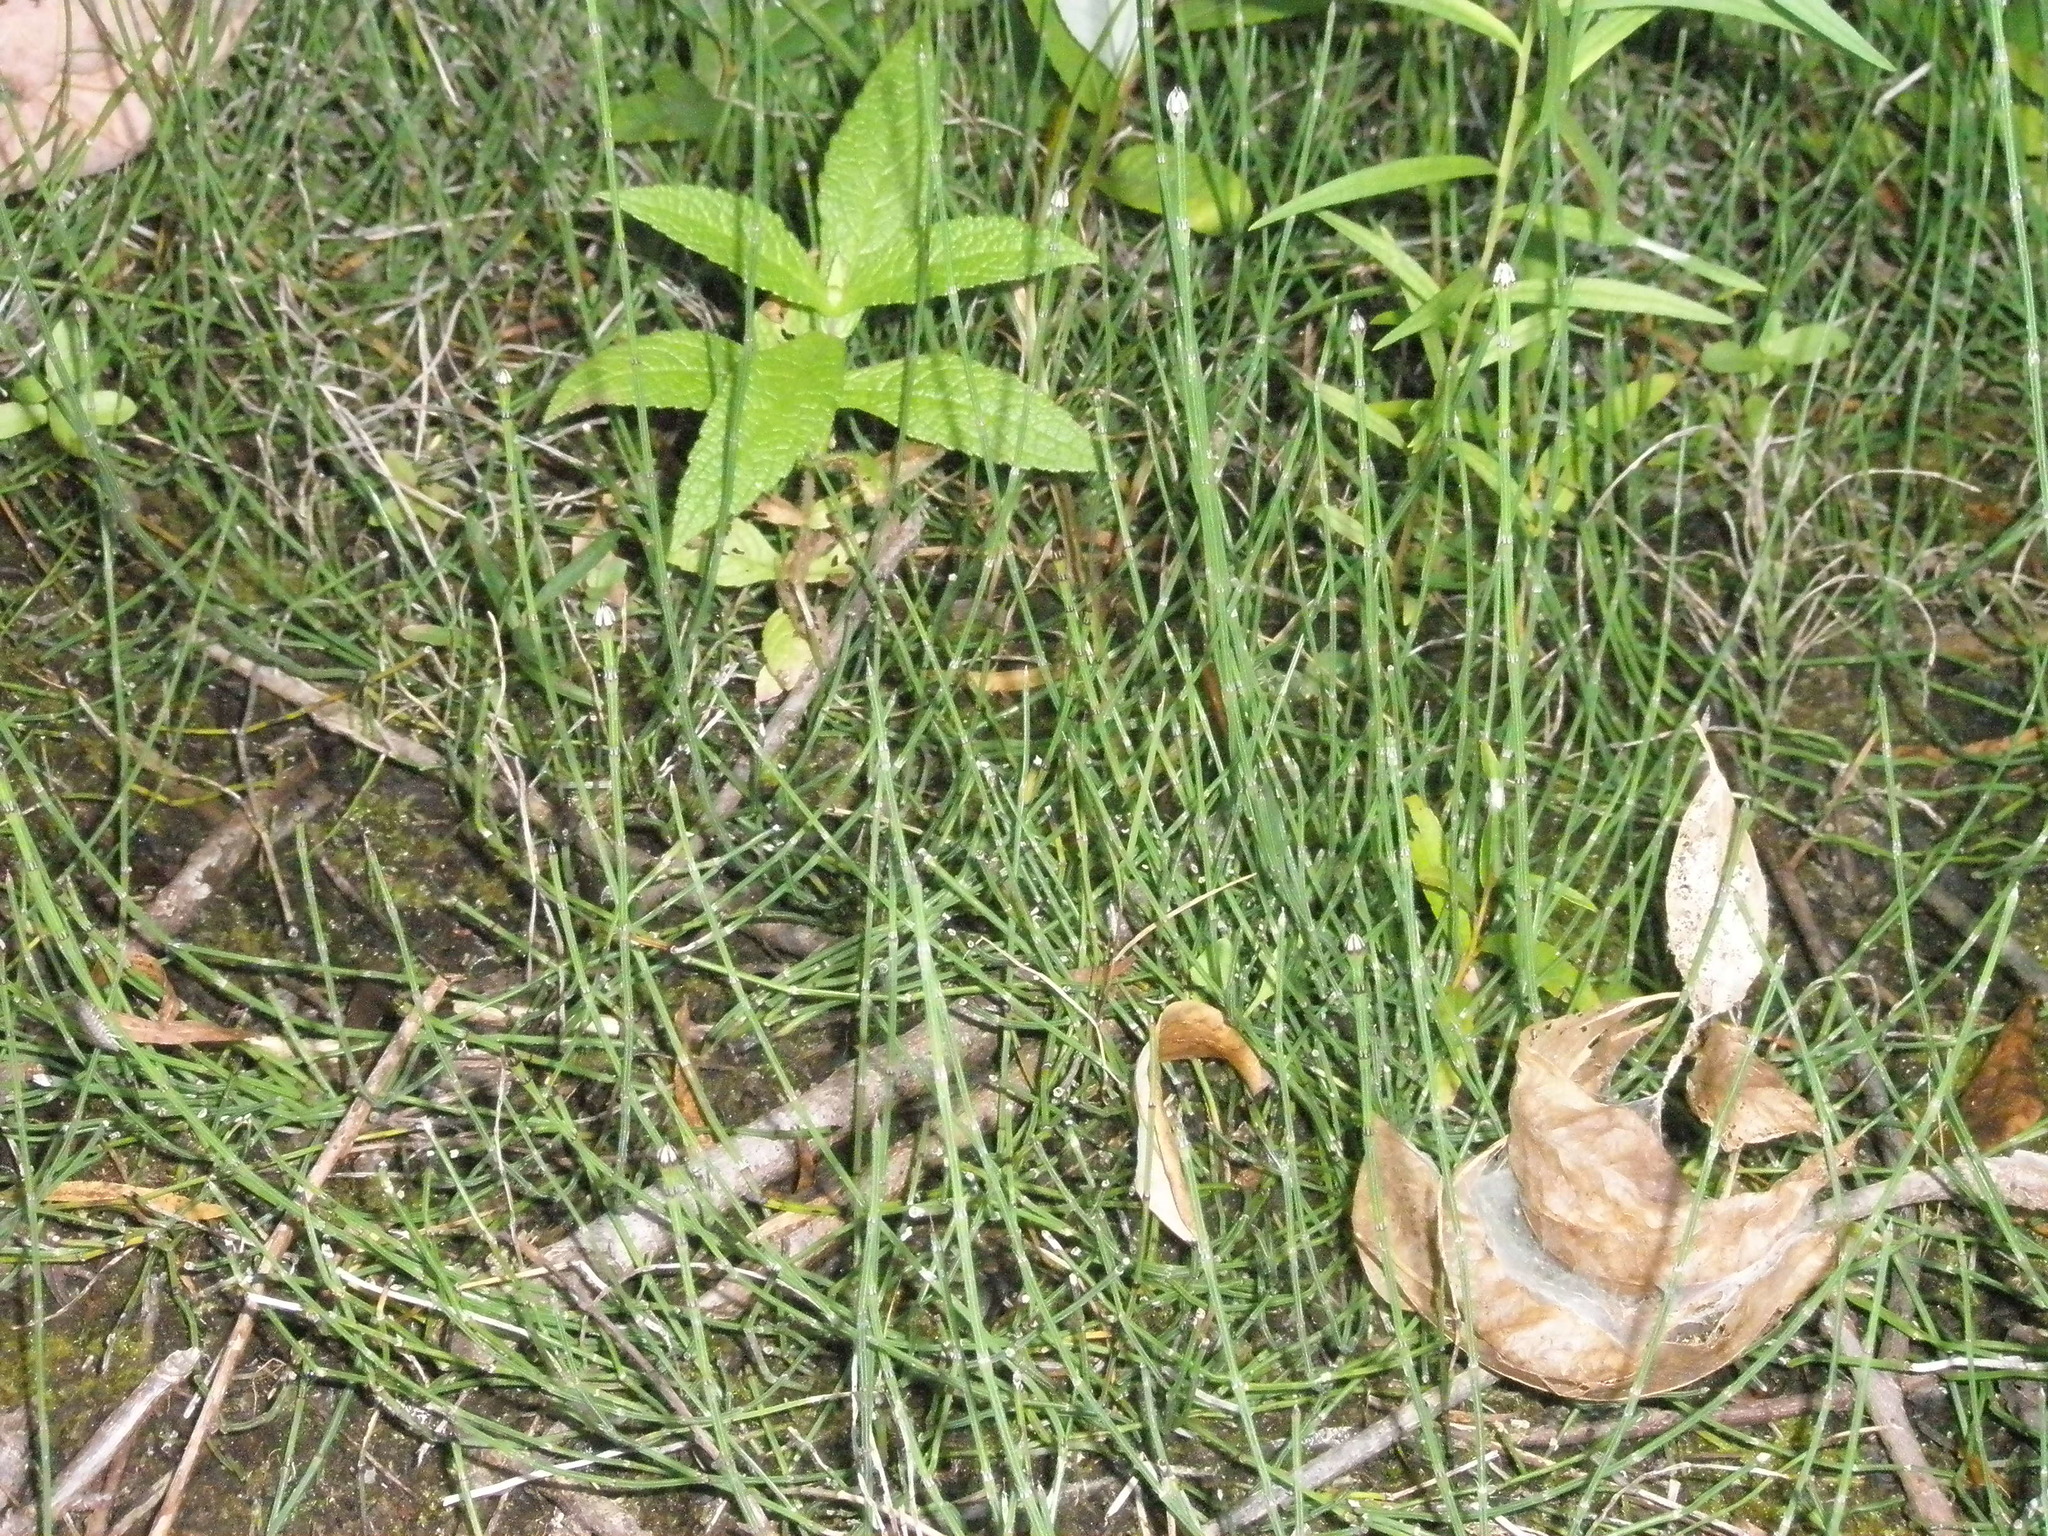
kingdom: Plantae
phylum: Tracheophyta
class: Polypodiopsida
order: Equisetales
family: Equisetaceae
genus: Equisetum
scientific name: Equisetum variegatum
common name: Variegated horsetail
